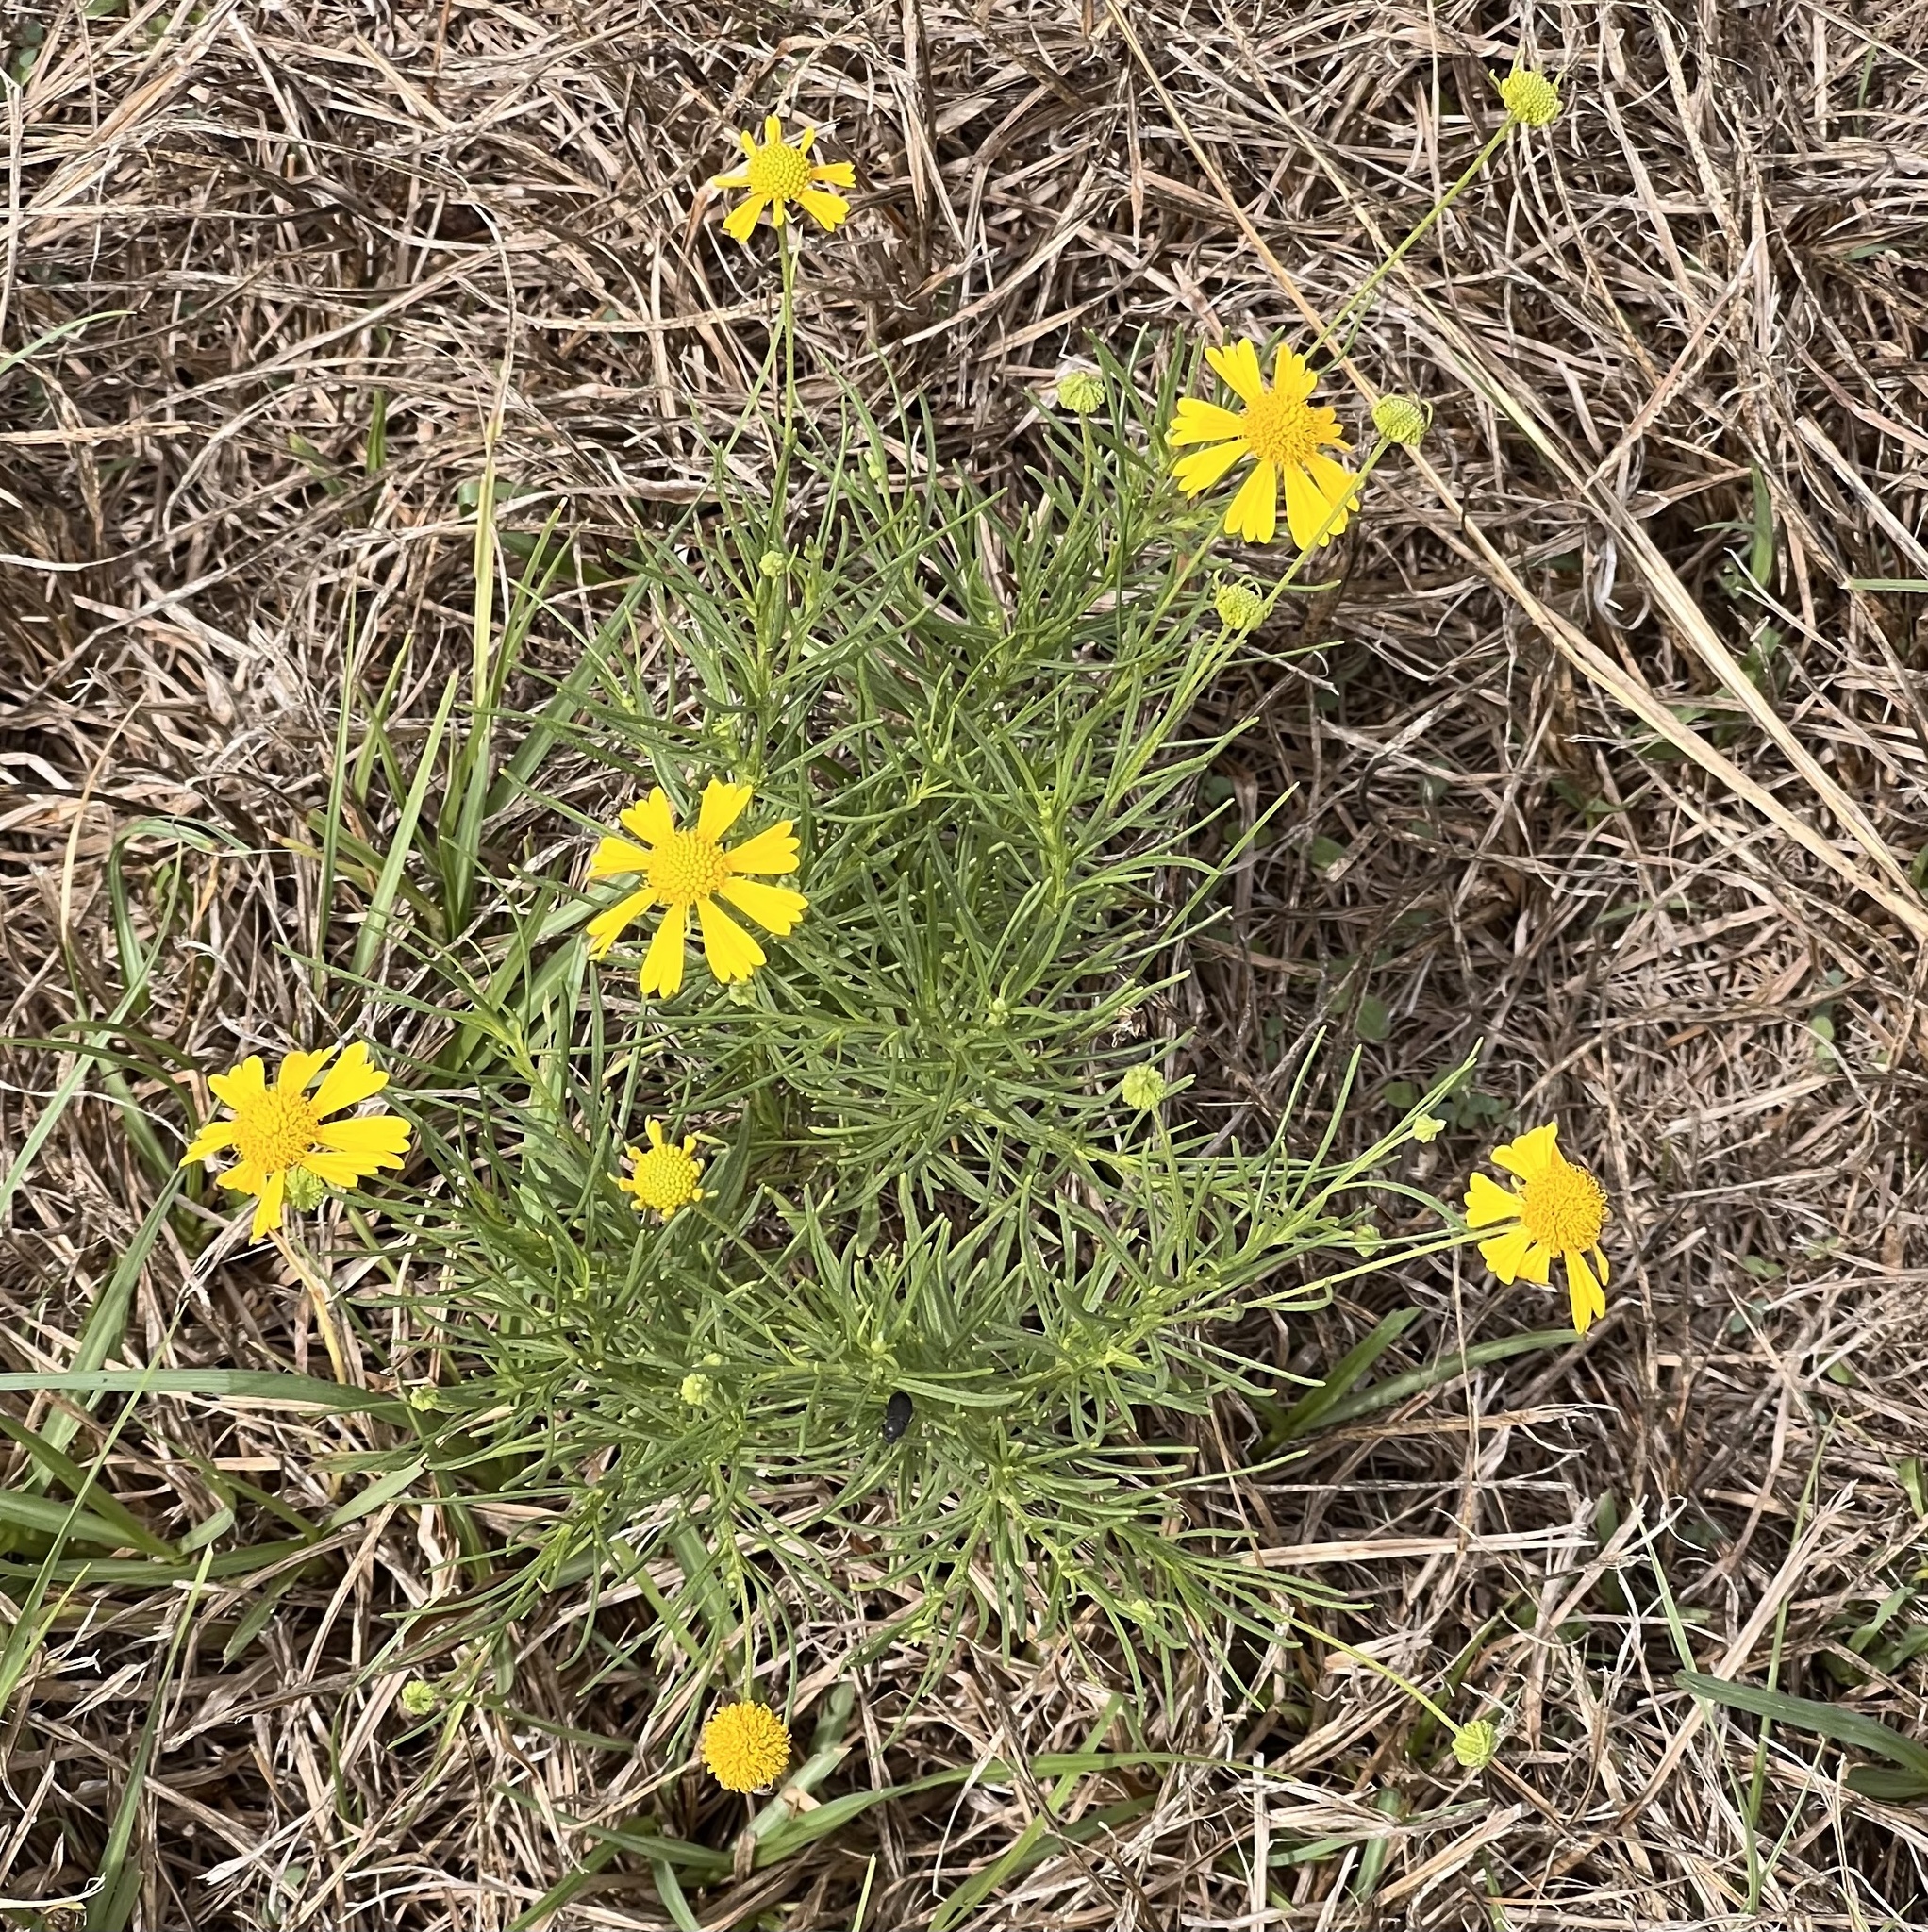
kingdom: Plantae
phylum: Tracheophyta
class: Magnoliopsida
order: Asterales
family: Asteraceae
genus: Helenium
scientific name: Helenium amarum
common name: Bitter sneezeweed
